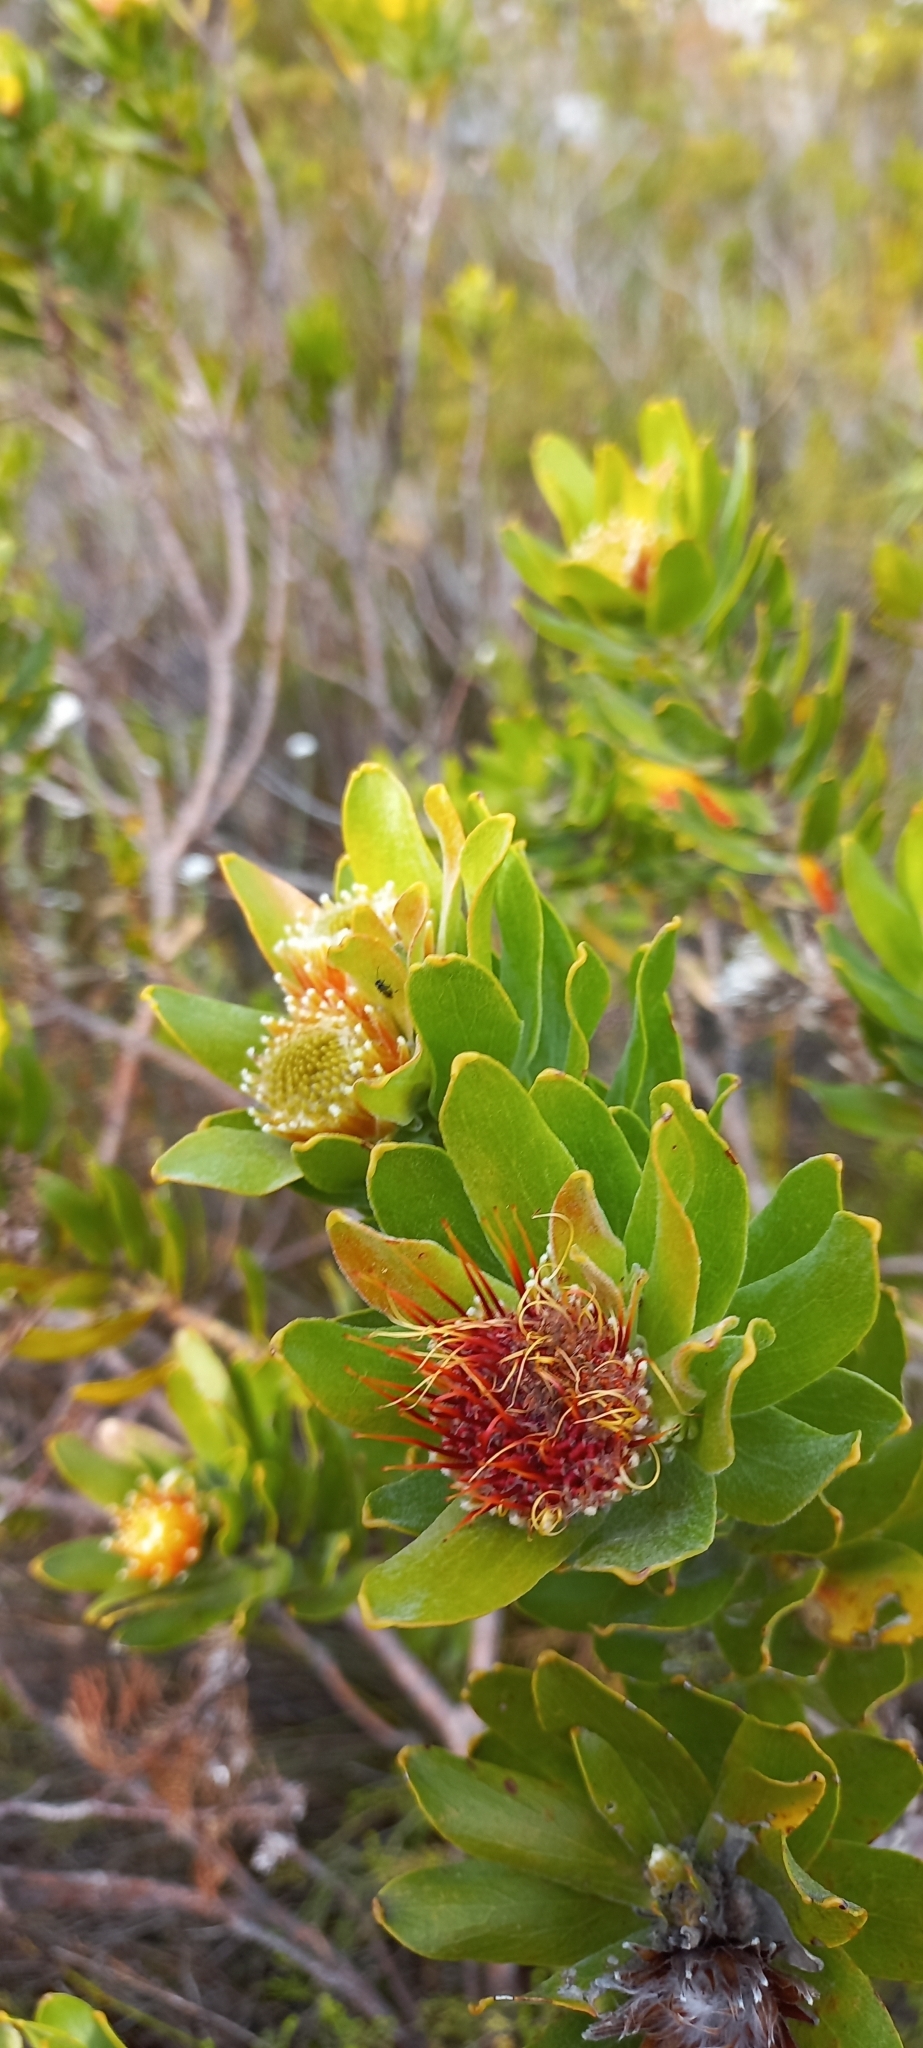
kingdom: Plantae
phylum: Tracheophyta
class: Magnoliopsida
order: Proteales
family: Proteaceae
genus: Leucospermum
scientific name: Leucospermum oleifolium
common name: Matches
